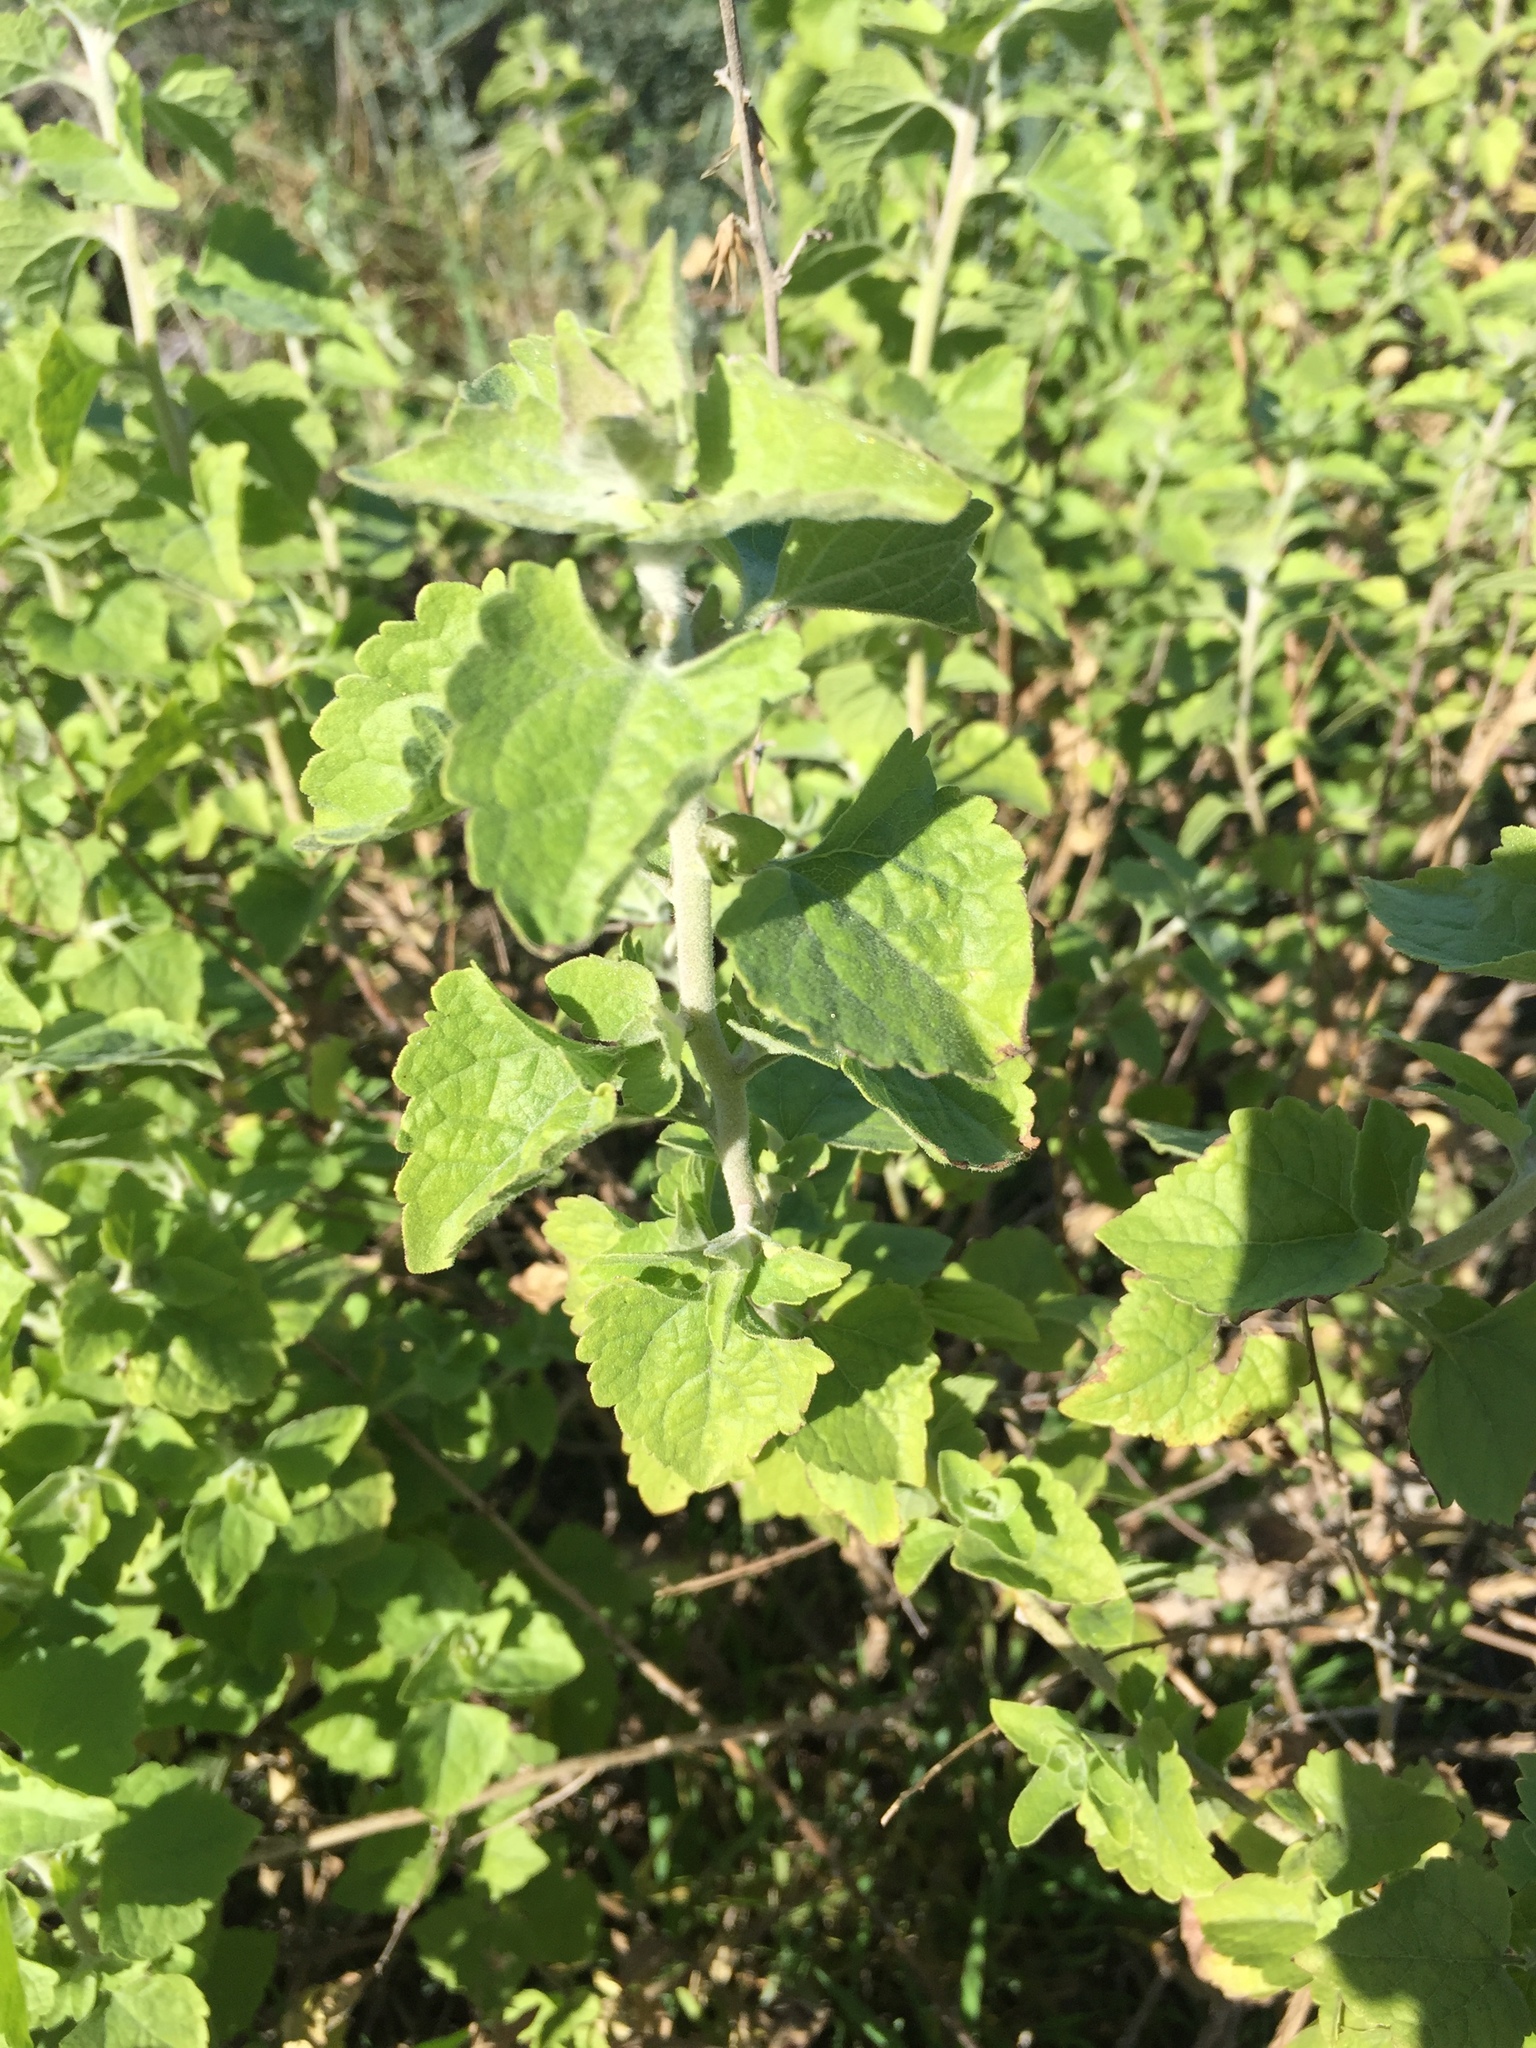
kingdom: Plantae
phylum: Tracheophyta
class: Magnoliopsida
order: Asterales
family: Asteraceae
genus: Brickellia
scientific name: Brickellia californica
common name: California brickellbush
